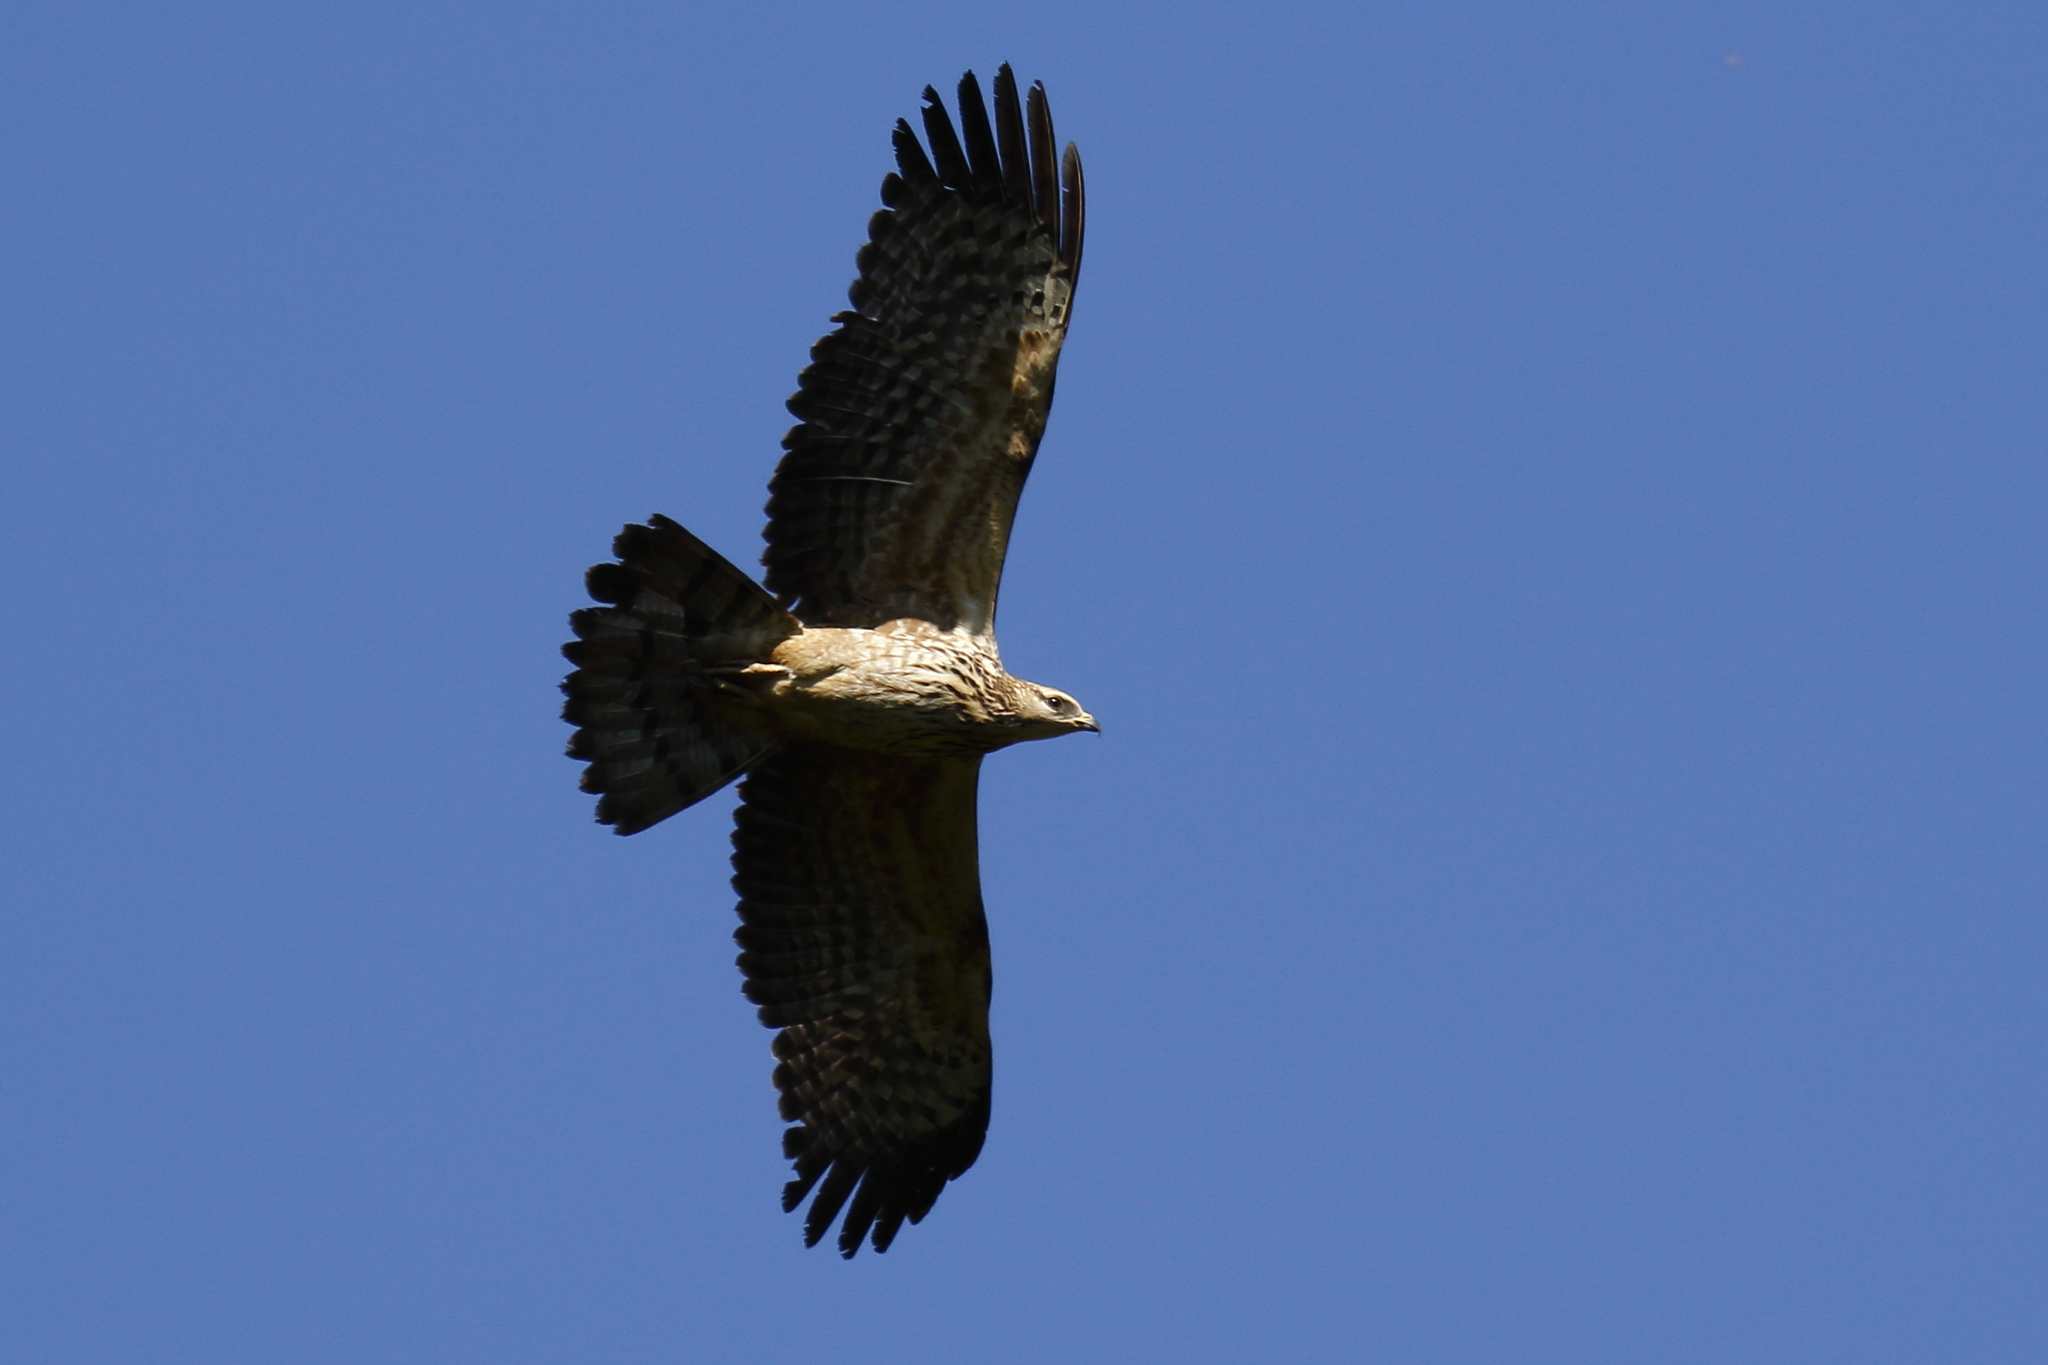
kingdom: Animalia
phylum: Chordata
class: Aves
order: Accipitriformes
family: Accipitridae
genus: Pernis
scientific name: Pernis ptilorhynchus
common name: Crested honey buzzard
